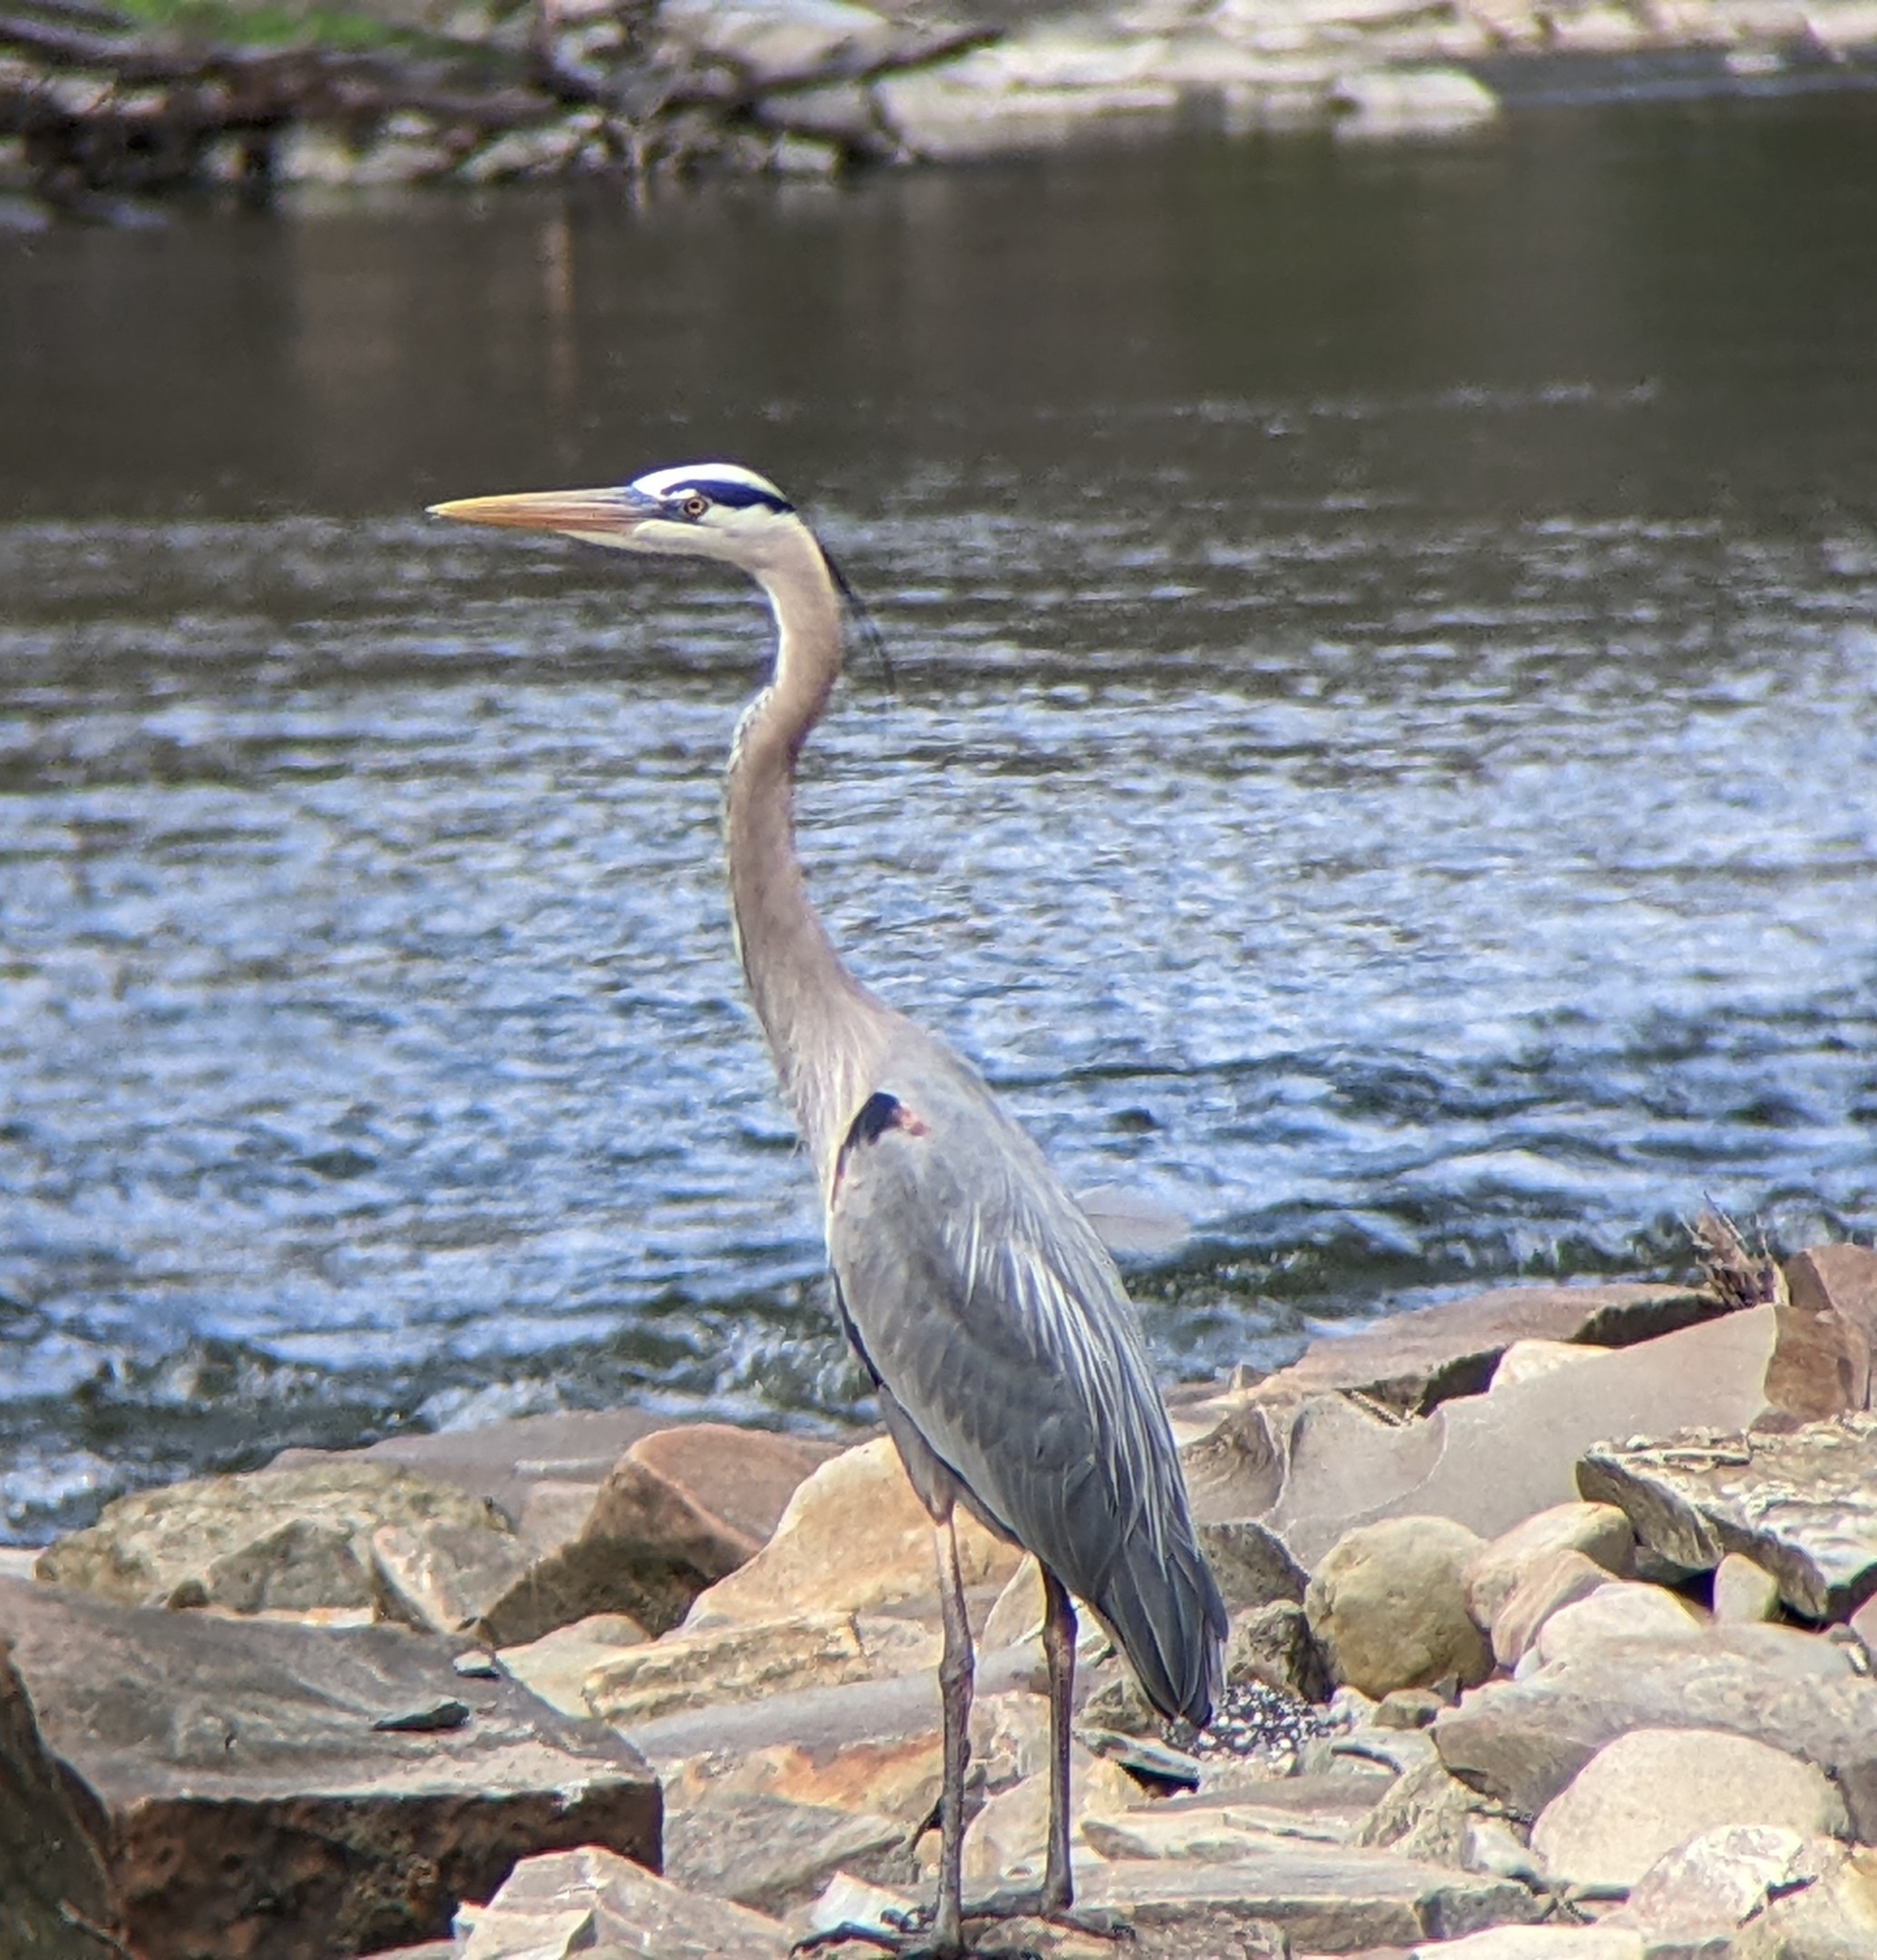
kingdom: Animalia
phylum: Chordata
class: Aves
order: Pelecaniformes
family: Ardeidae
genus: Ardea
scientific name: Ardea herodias
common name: Great blue heron
